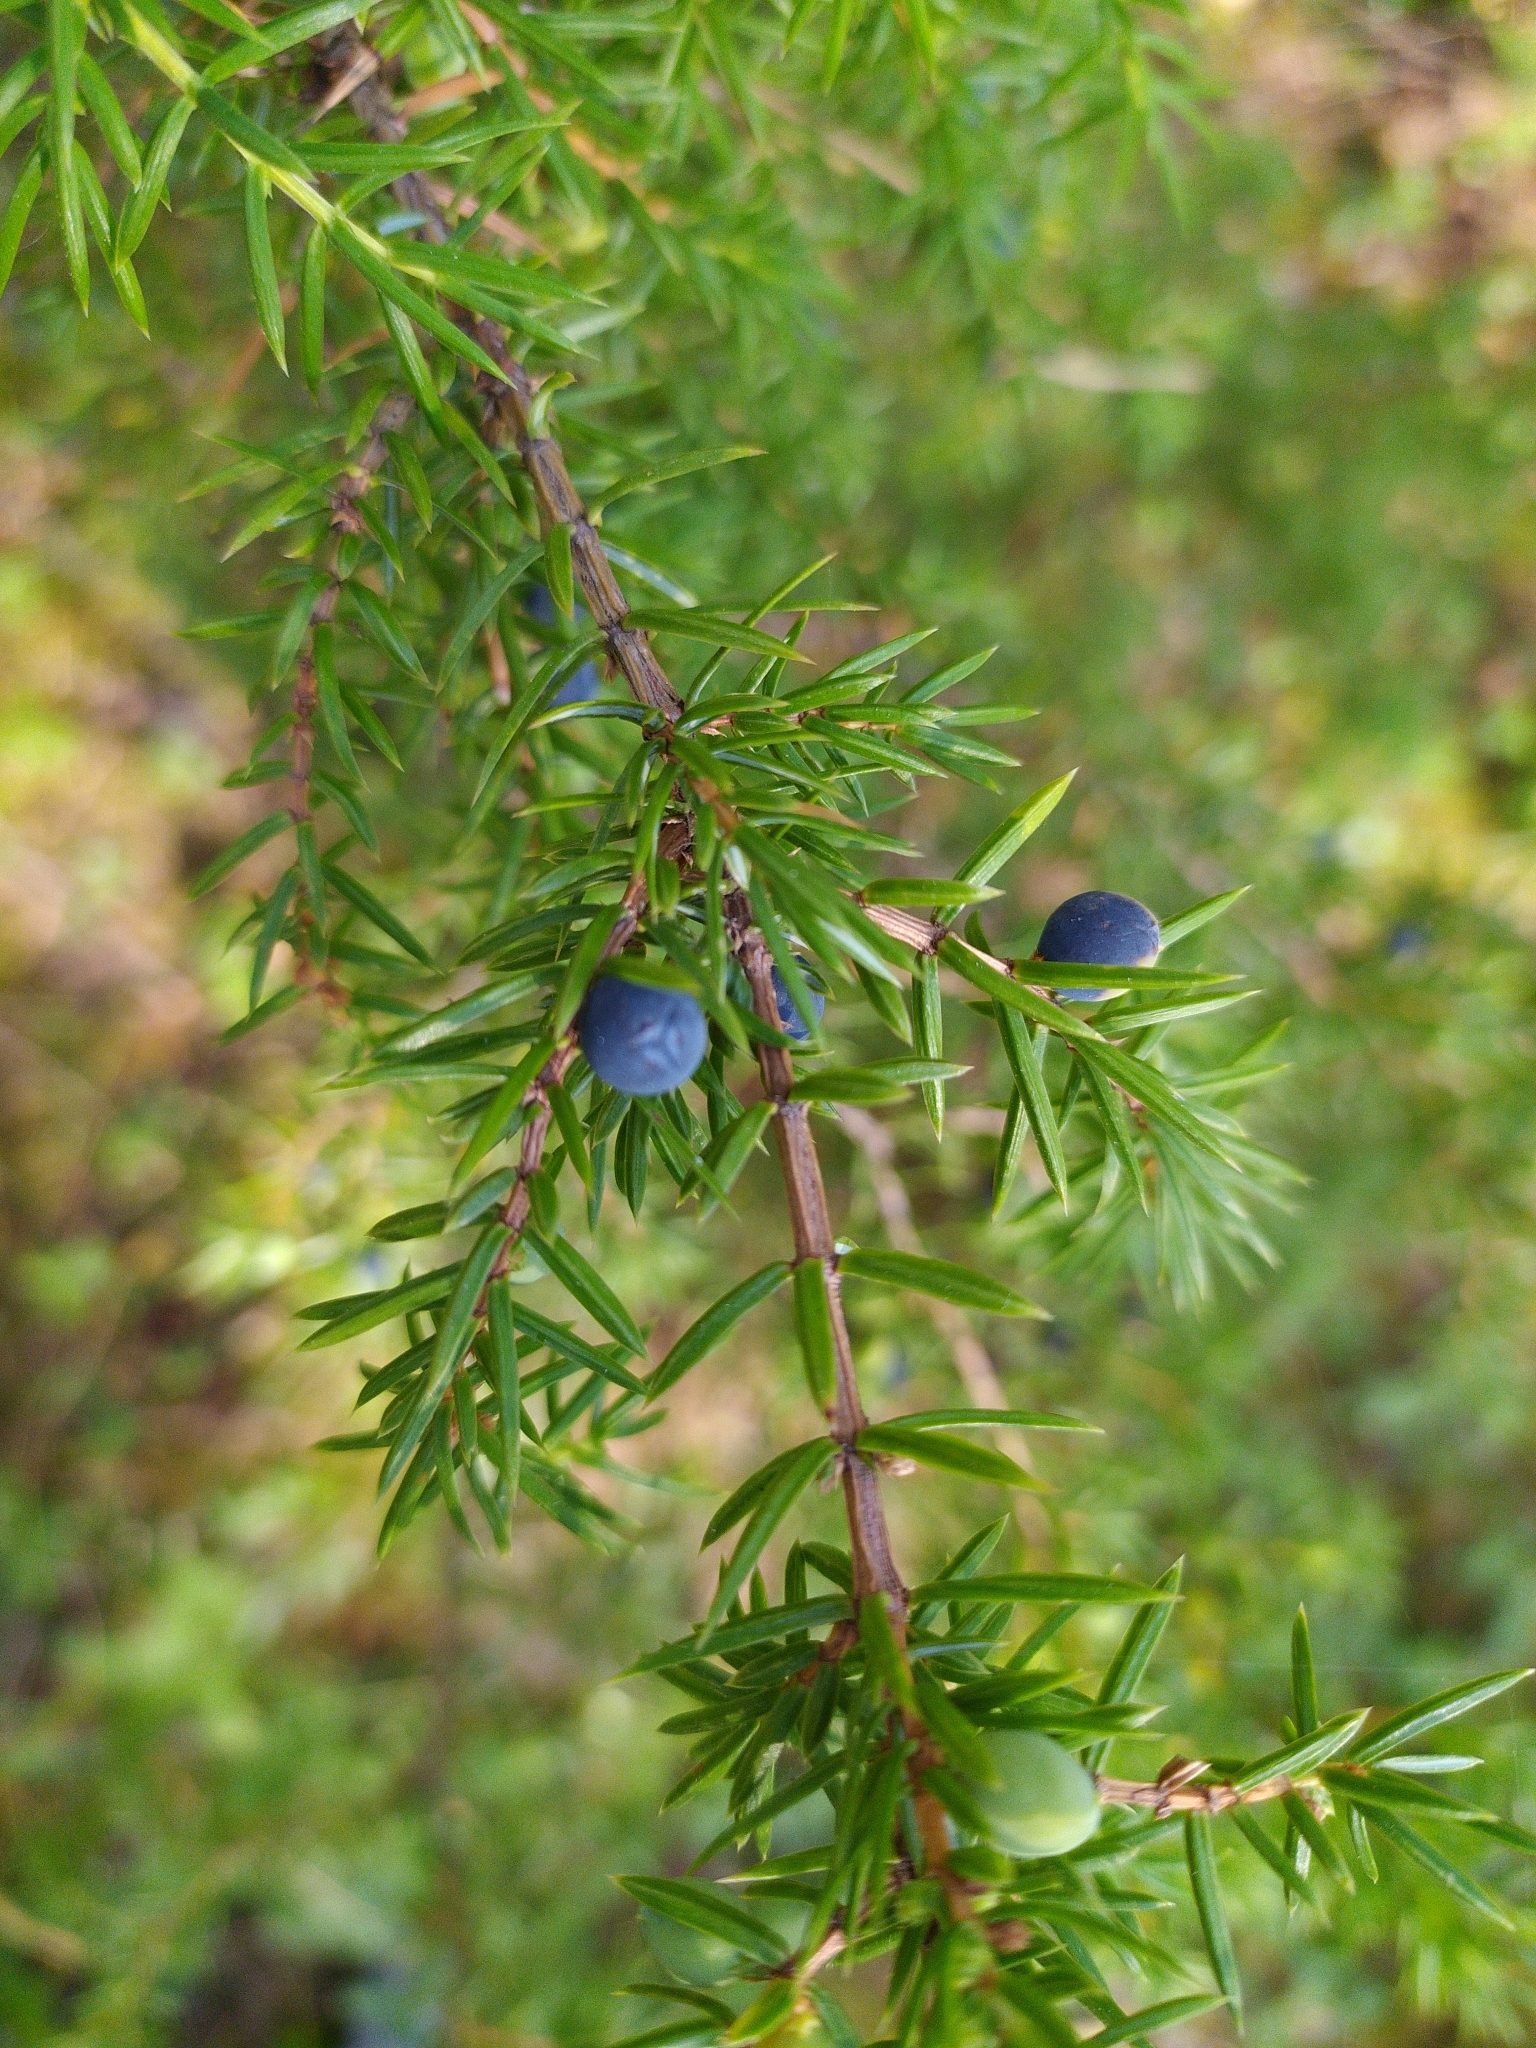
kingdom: Plantae
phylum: Tracheophyta
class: Pinopsida
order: Pinales
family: Cupressaceae
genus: Juniperus
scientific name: Juniperus communis
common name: Common juniper
